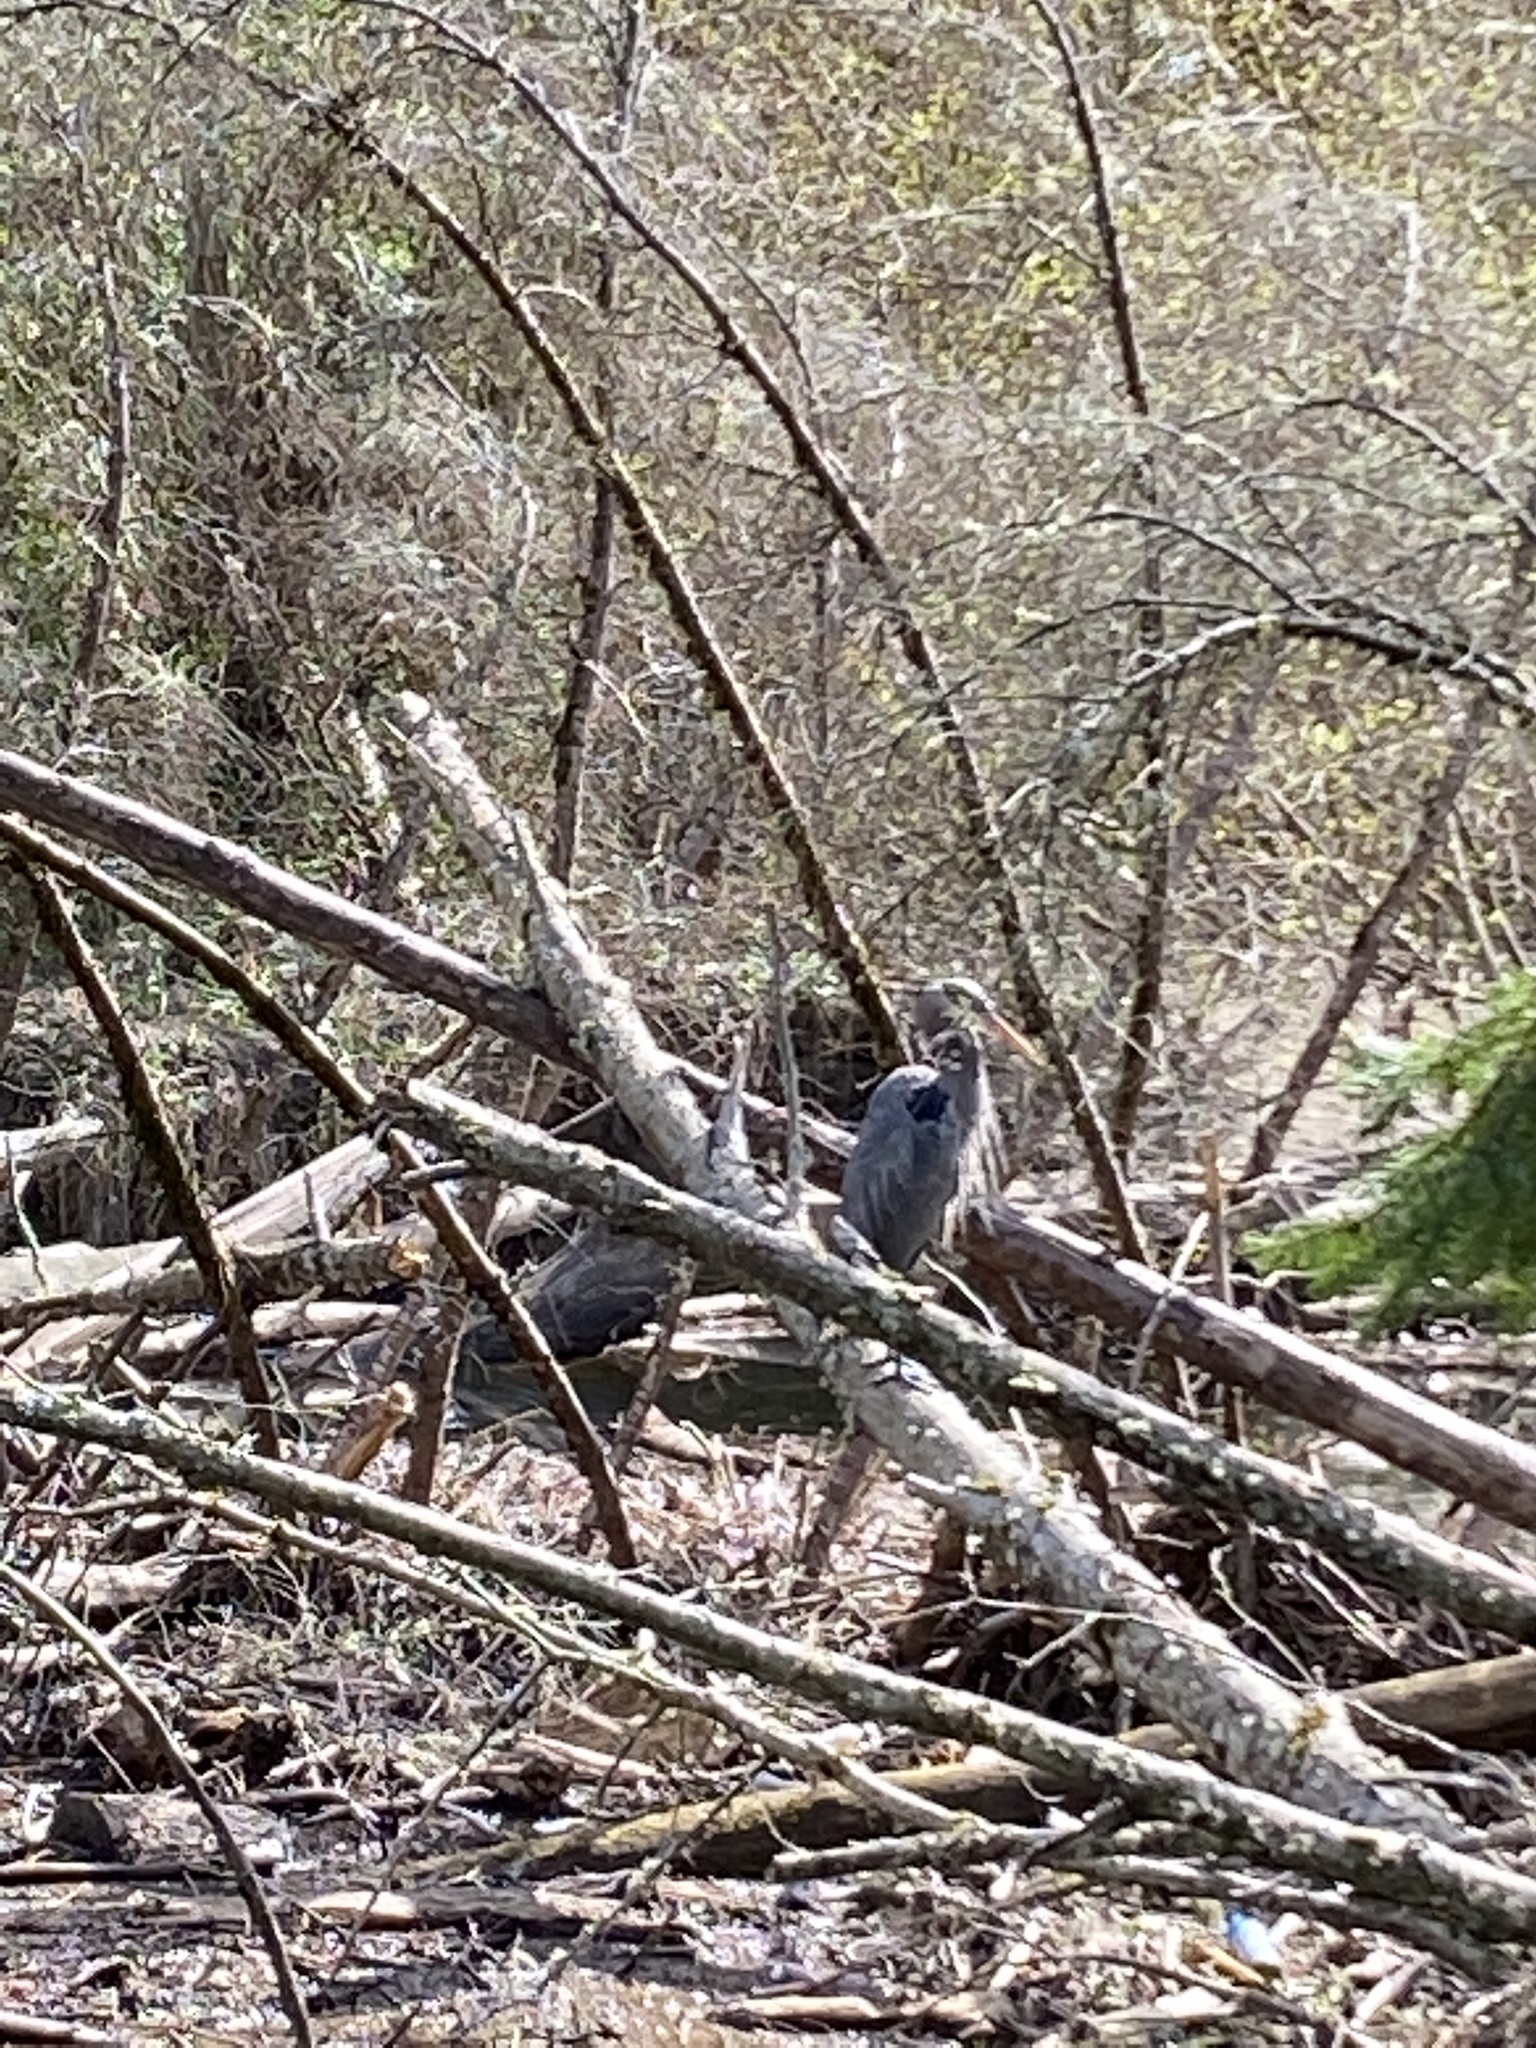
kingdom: Animalia
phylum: Chordata
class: Aves
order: Pelecaniformes
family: Ardeidae
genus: Ardea
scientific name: Ardea herodias
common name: Great blue heron
